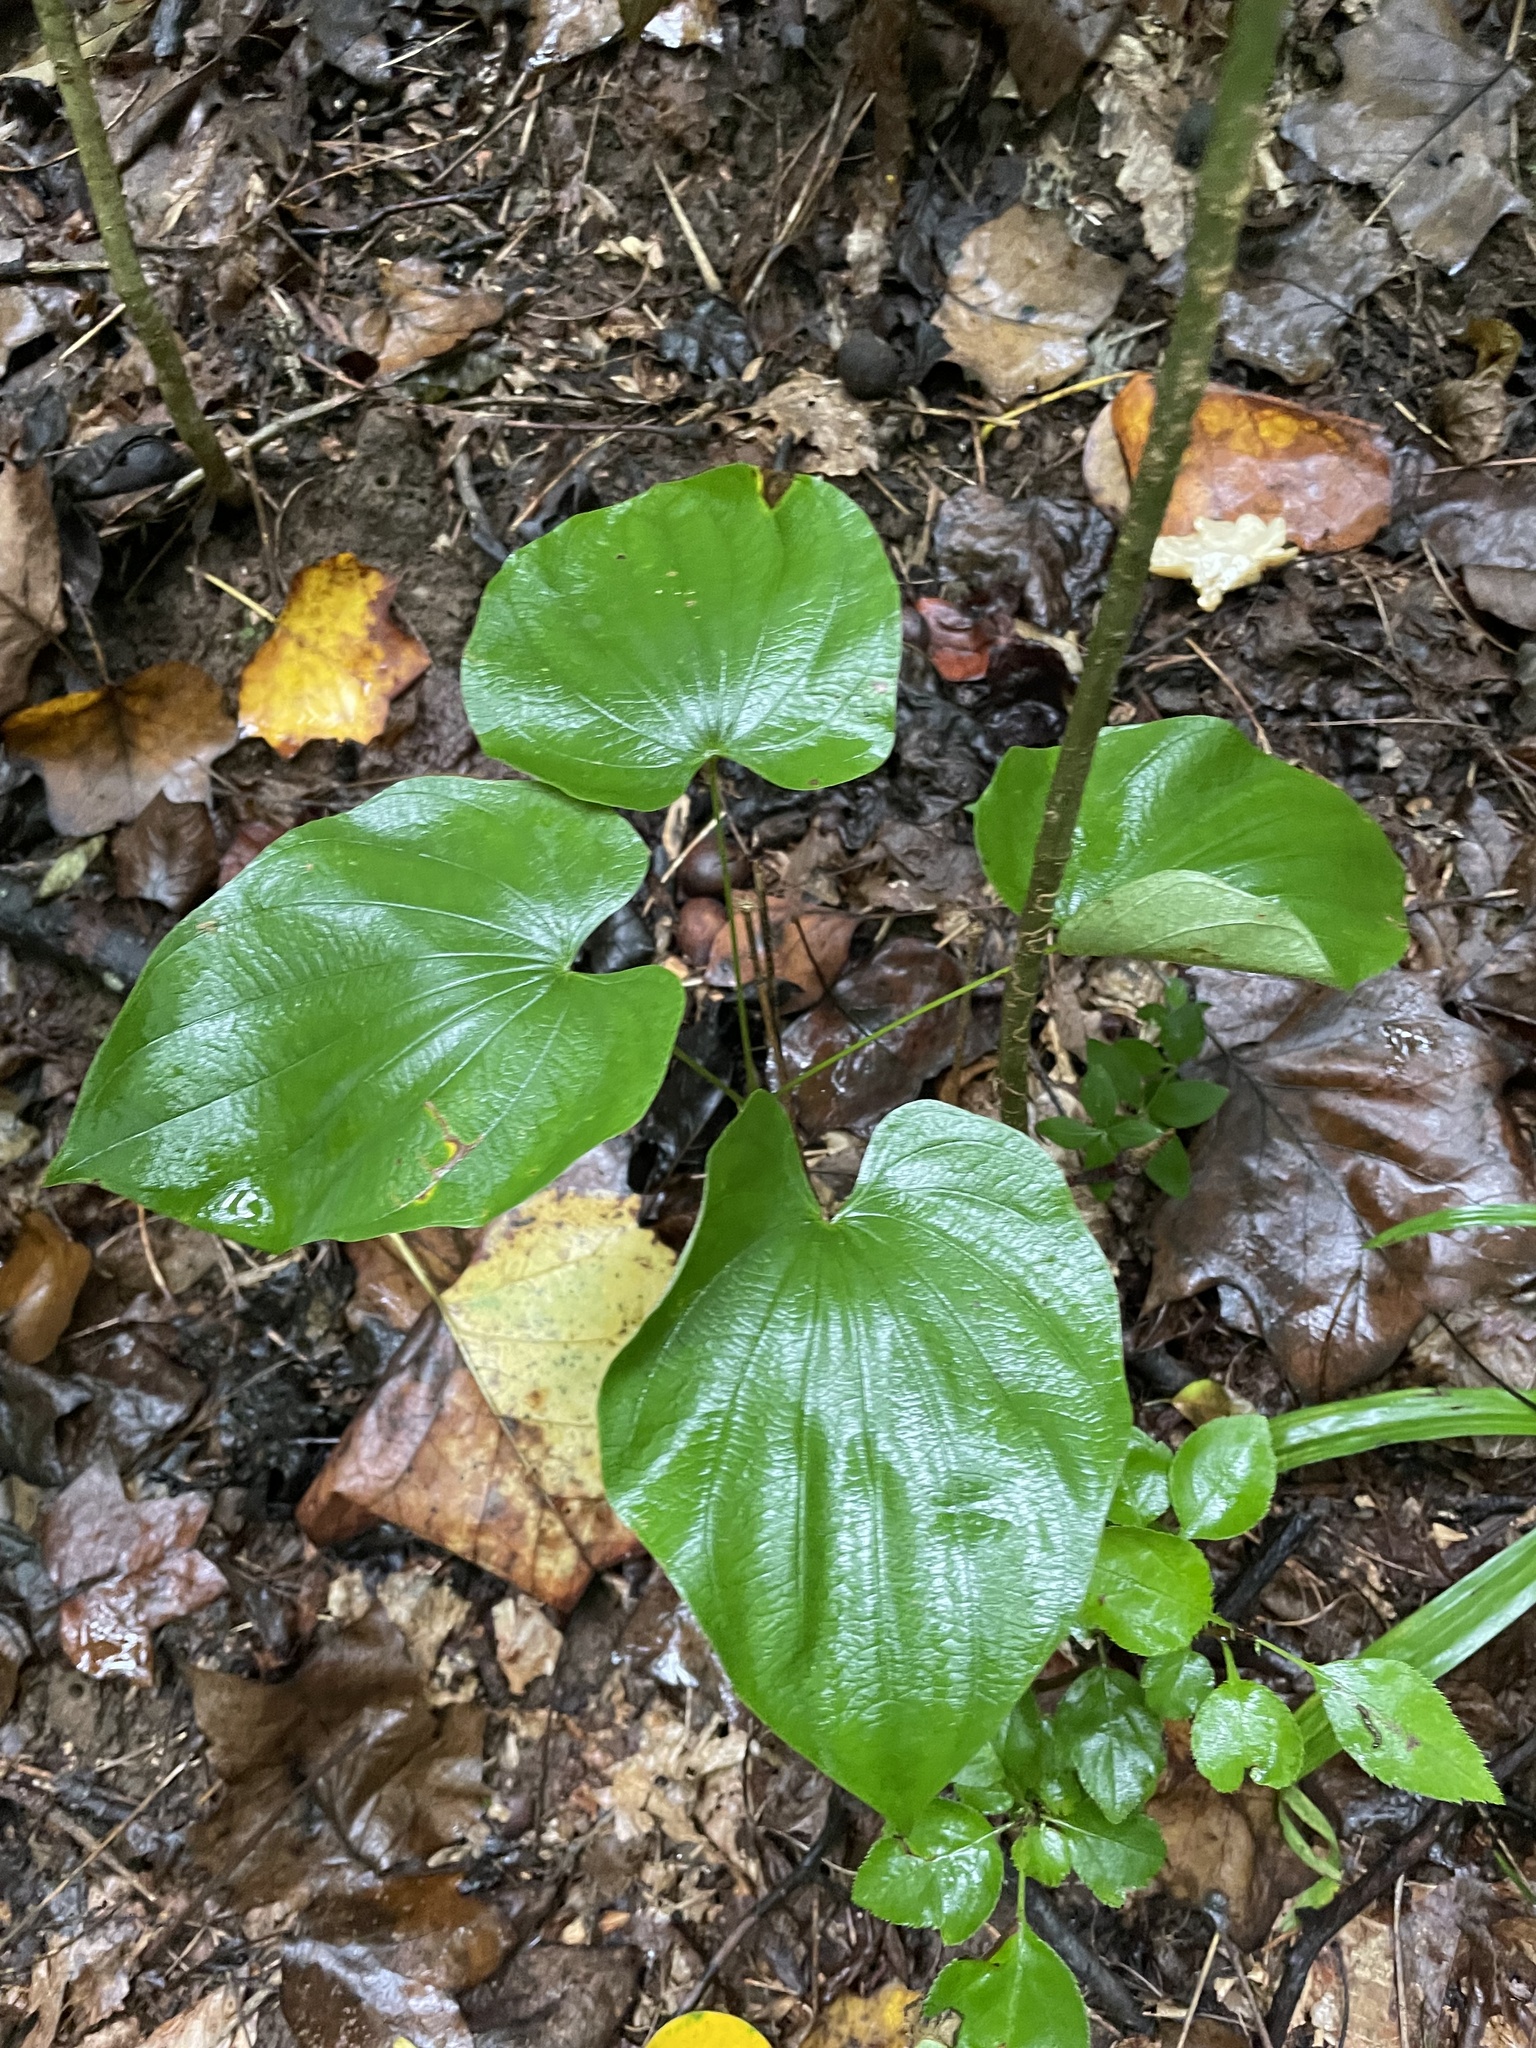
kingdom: Plantae
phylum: Tracheophyta
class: Liliopsida
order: Dioscoreales
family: Dioscoreaceae
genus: Dioscorea
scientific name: Dioscorea villosa
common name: Wild yam
